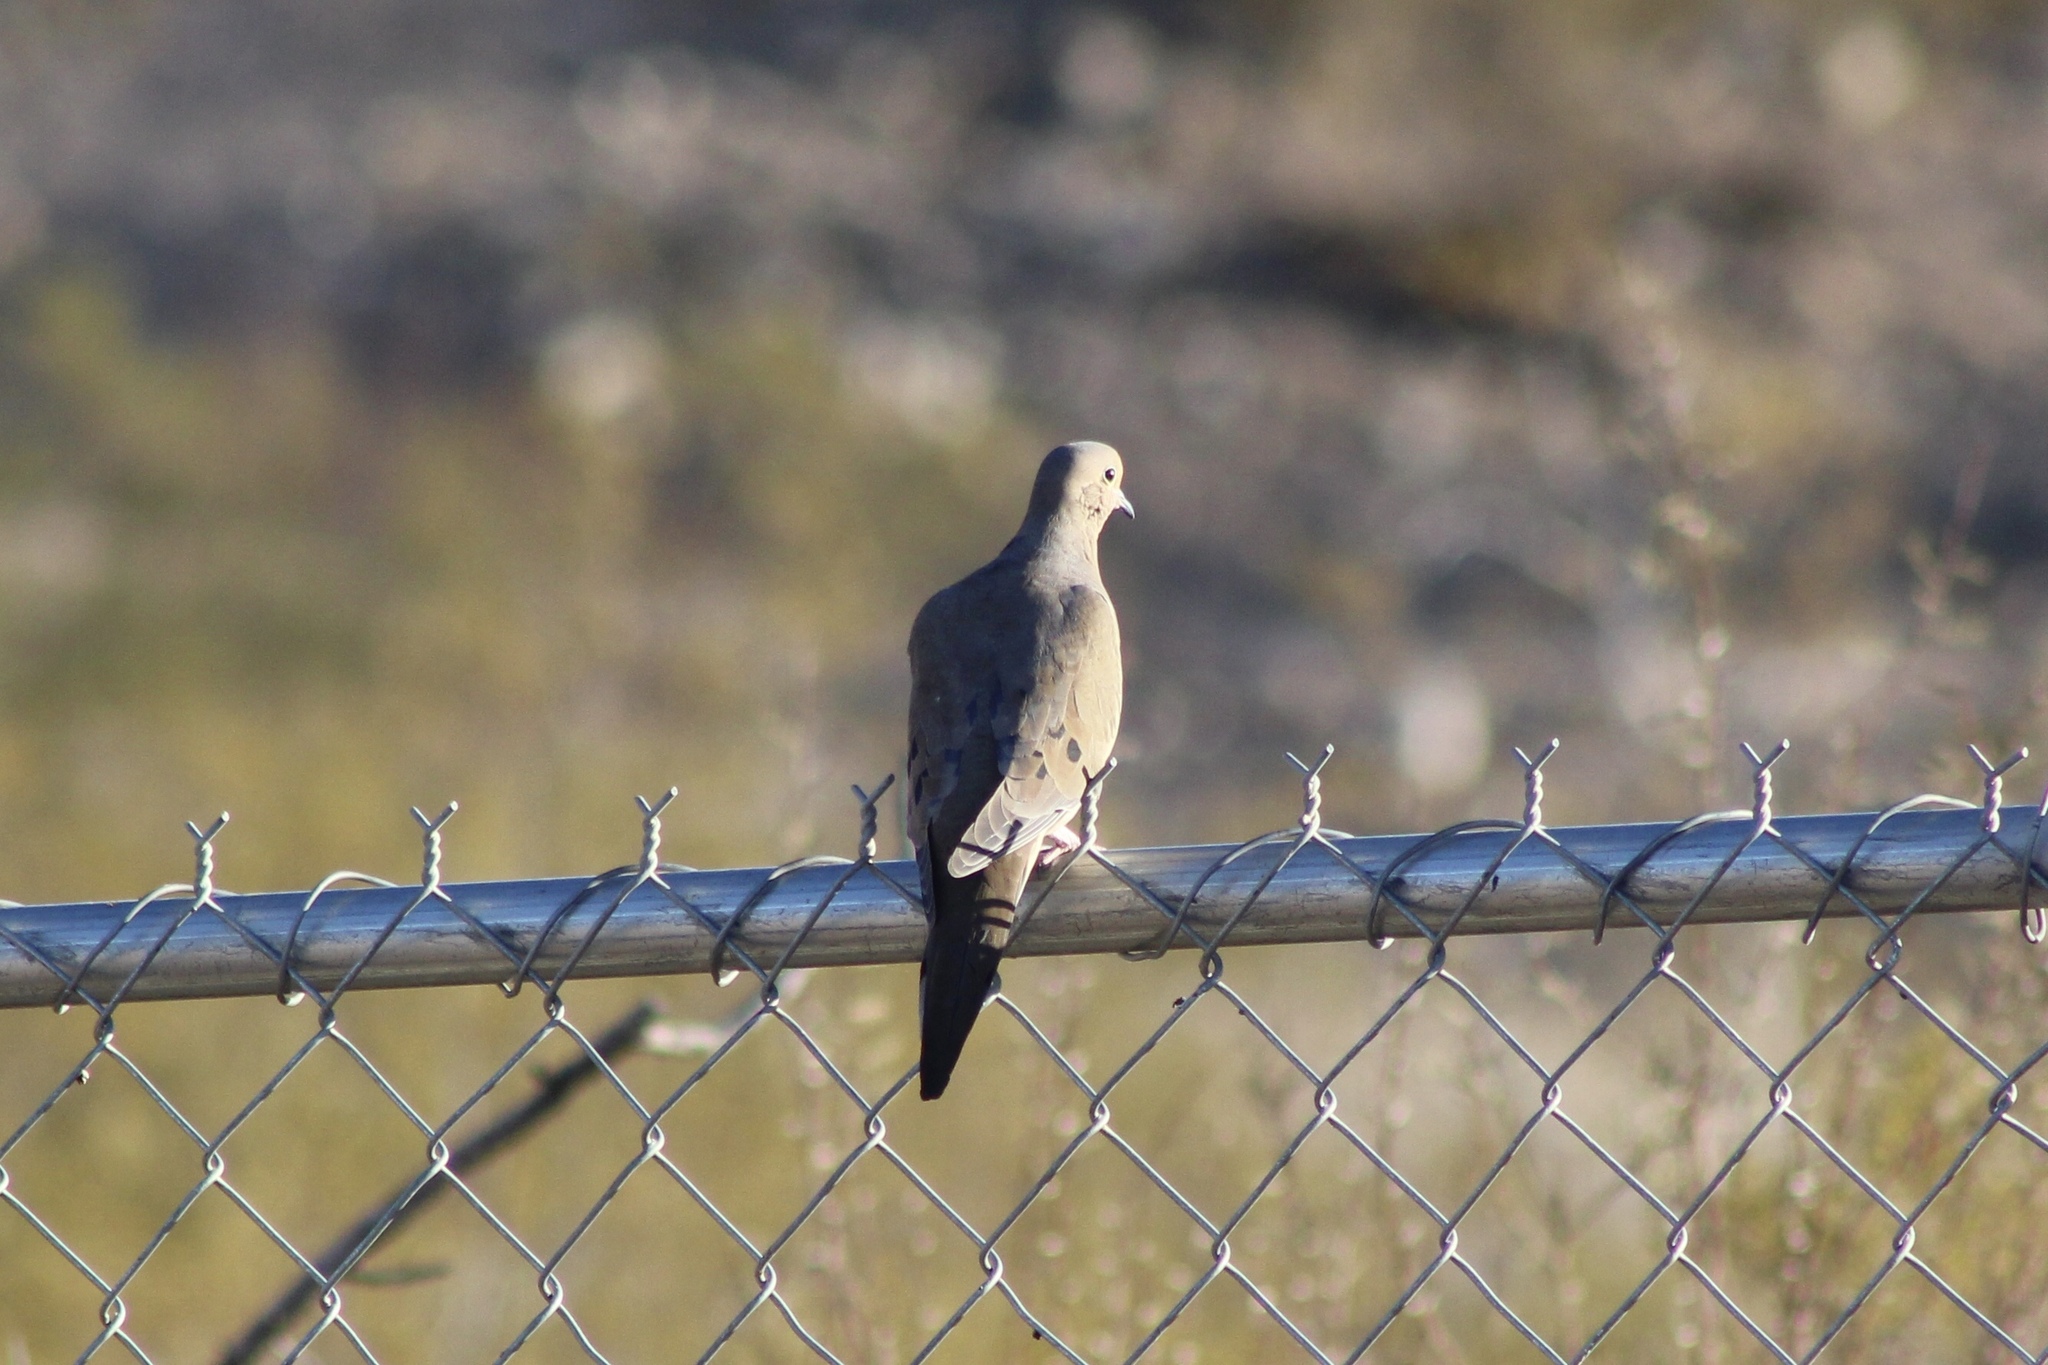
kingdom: Animalia
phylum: Chordata
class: Aves
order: Columbiformes
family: Columbidae
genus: Zenaida
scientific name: Zenaida macroura
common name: Mourning dove
